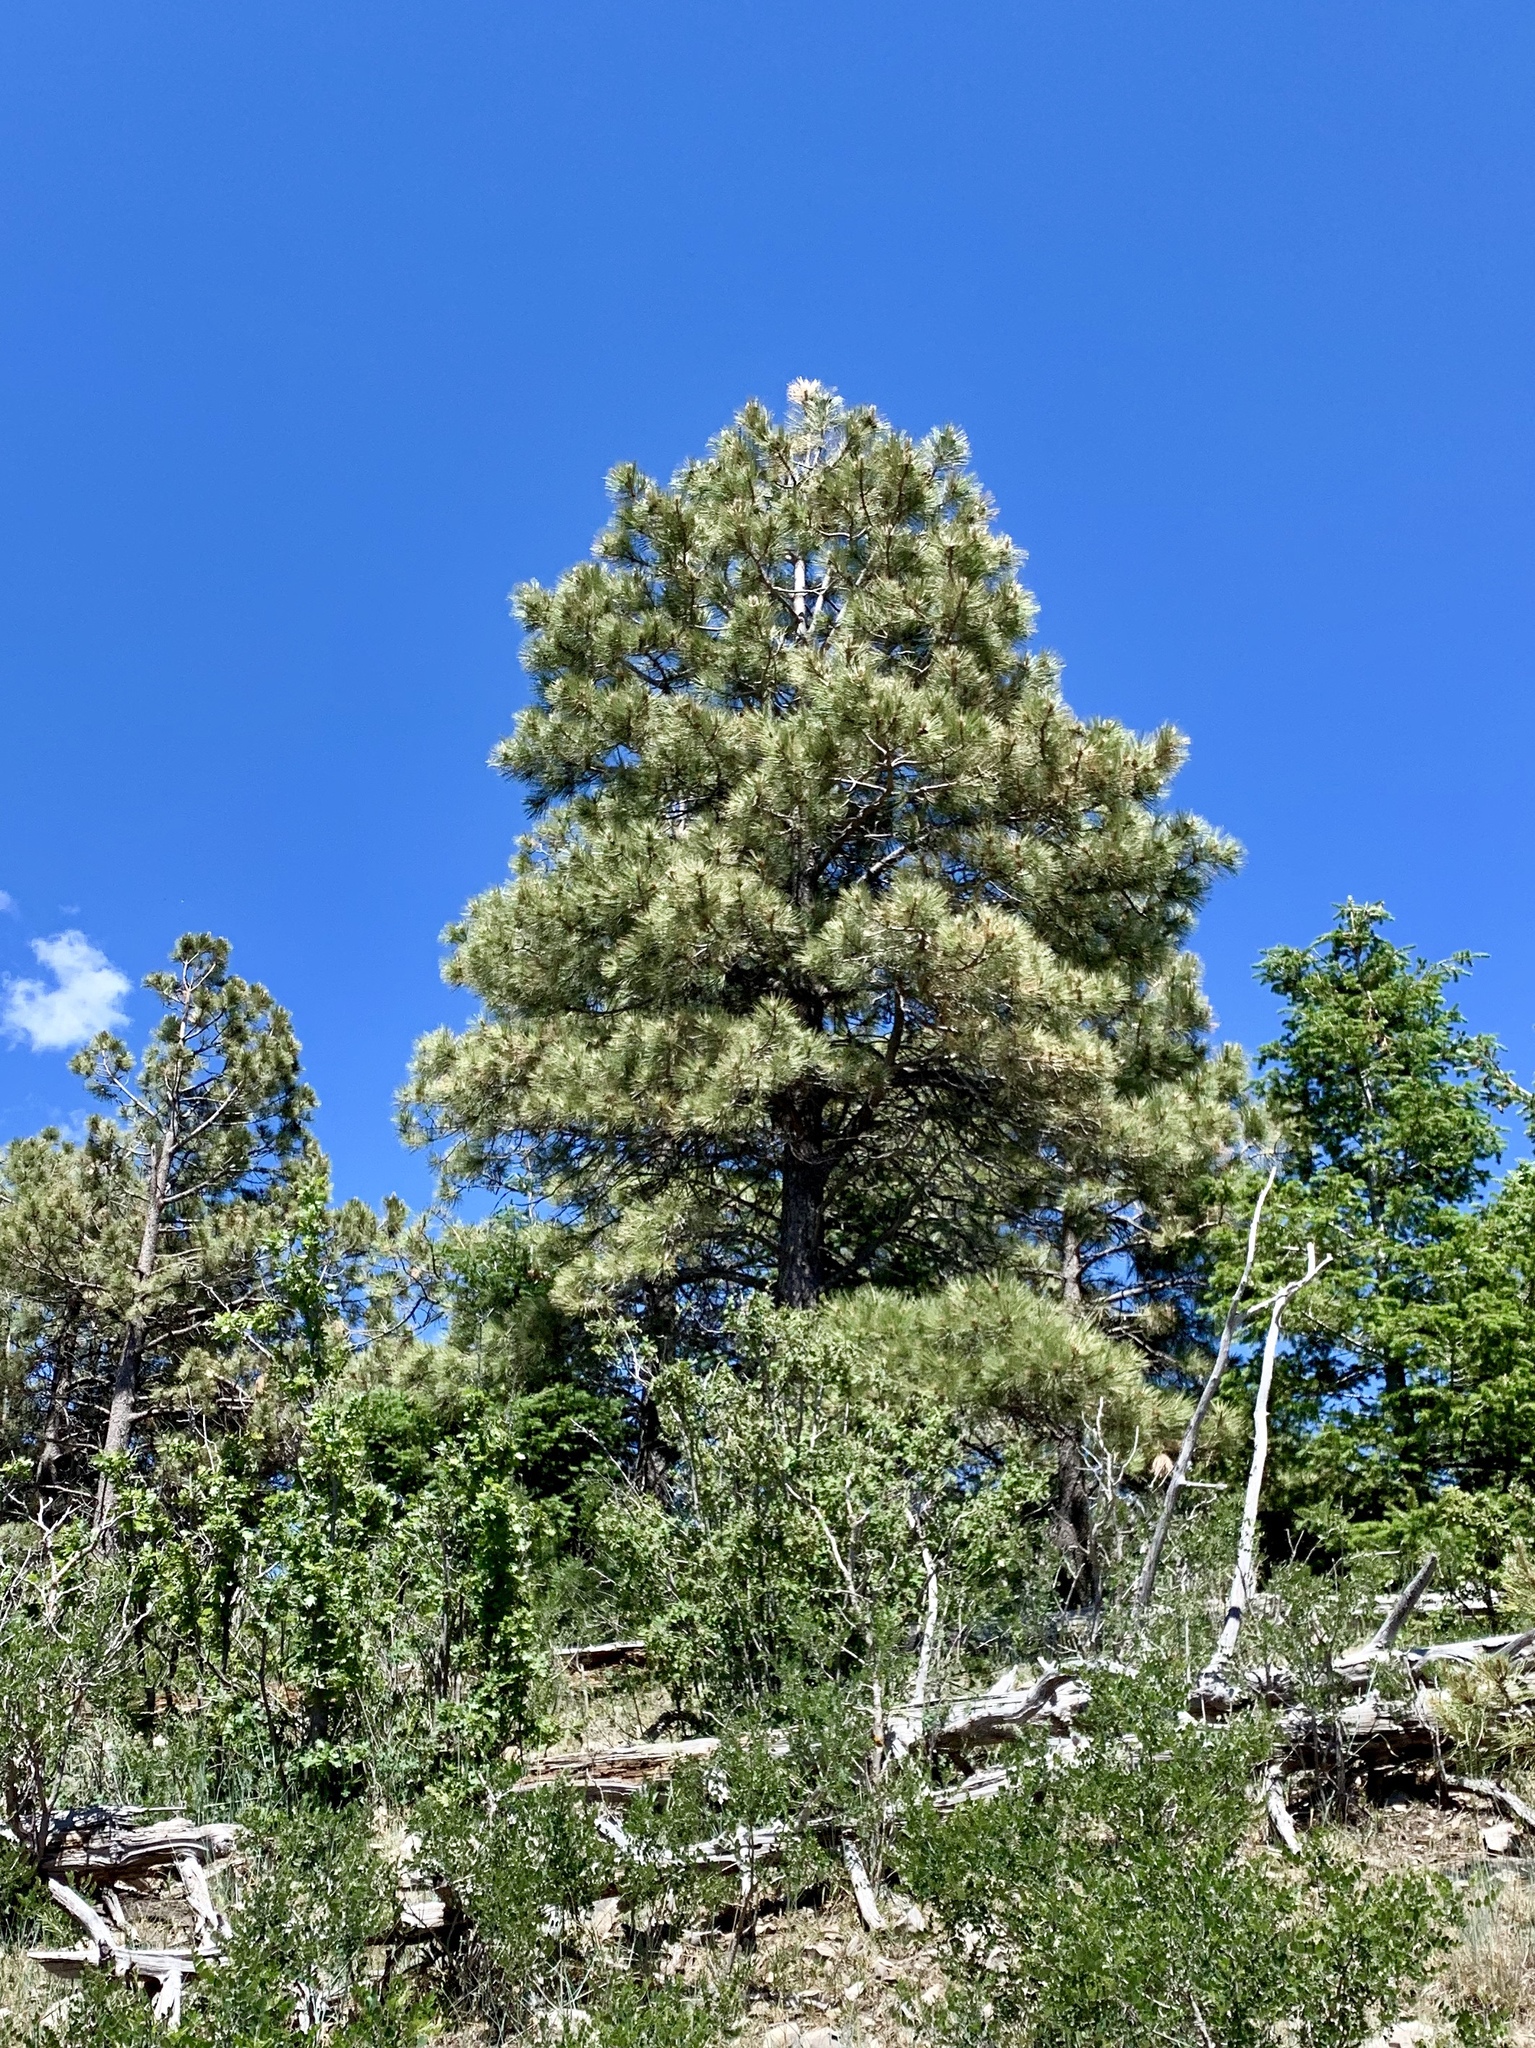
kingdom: Plantae
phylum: Tracheophyta
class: Pinopsida
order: Pinales
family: Pinaceae
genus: Pinus
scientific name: Pinus ponderosa
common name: Western yellow-pine
